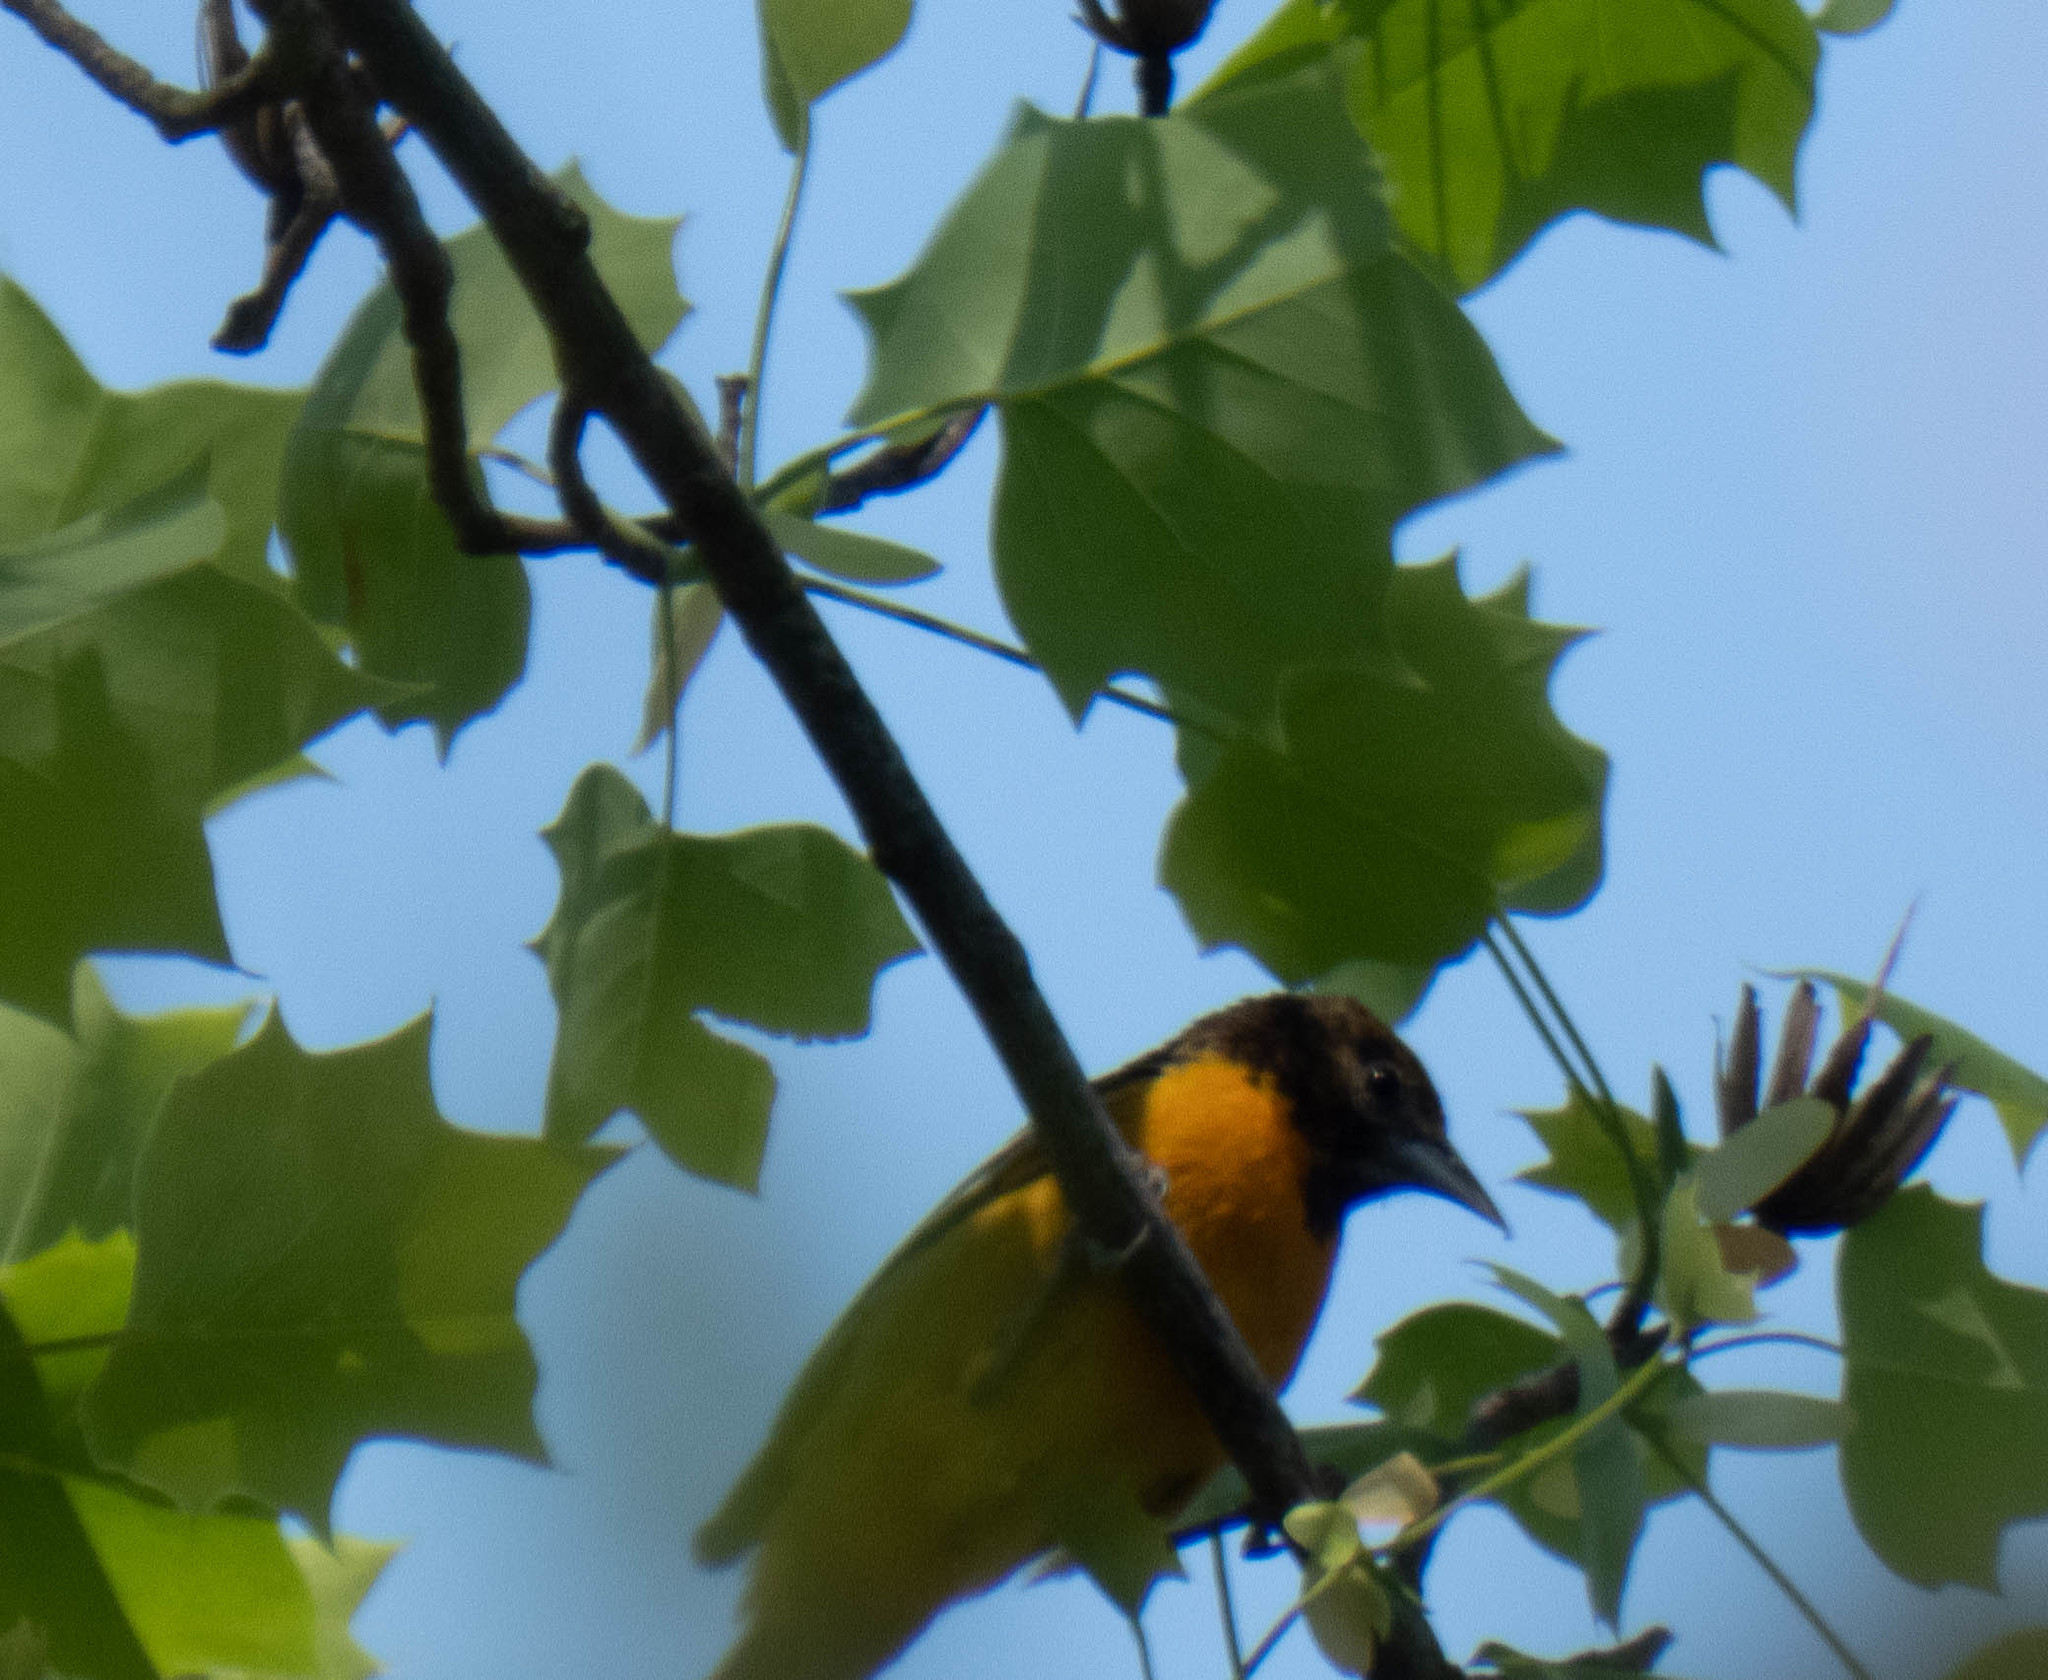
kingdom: Animalia
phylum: Chordata
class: Aves
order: Passeriformes
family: Icteridae
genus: Icterus
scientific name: Icterus galbula
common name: Baltimore oriole
